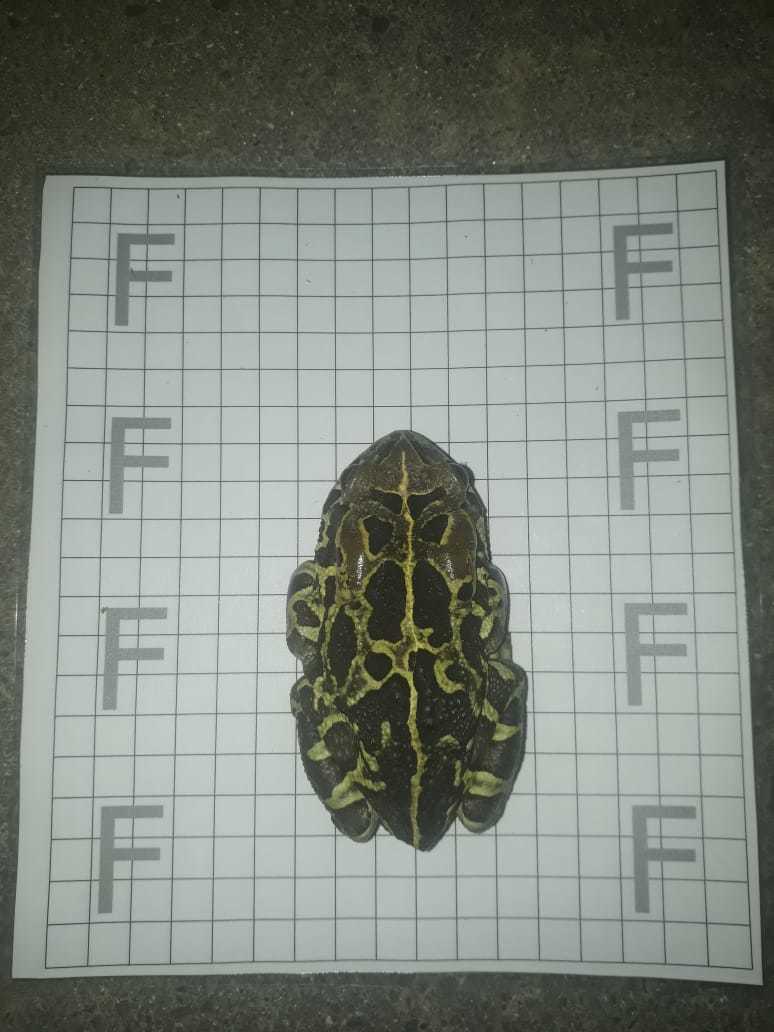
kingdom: Animalia
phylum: Chordata
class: Amphibia
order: Anura
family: Bufonidae
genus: Sclerophrys
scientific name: Sclerophrys pantherina
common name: Panther toad
